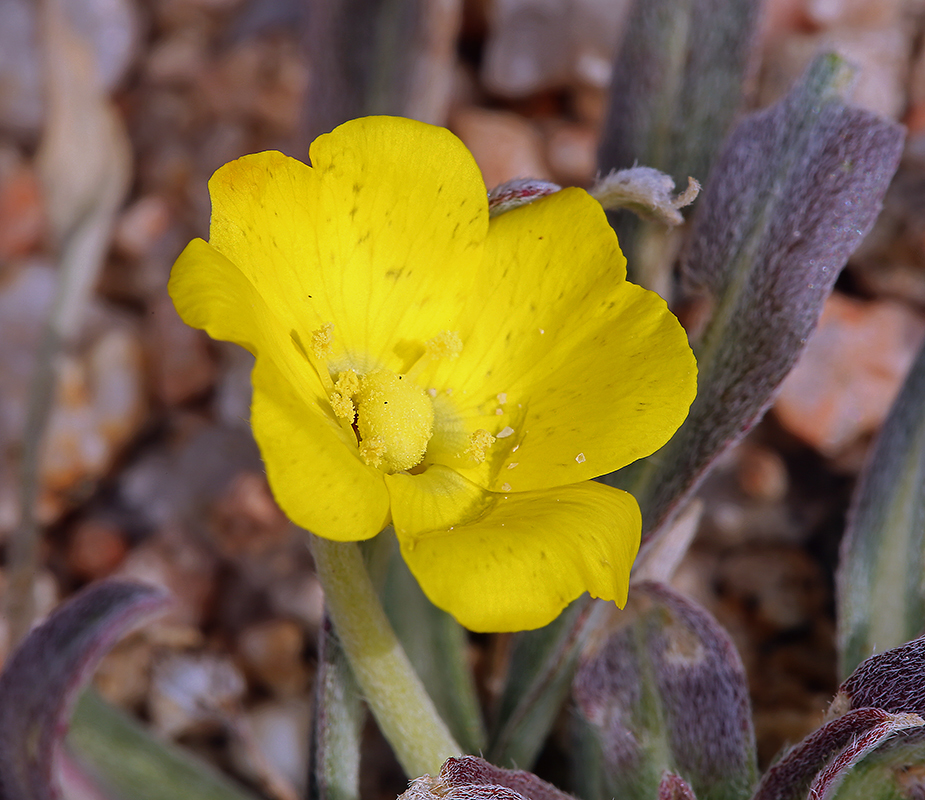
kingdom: Plantae
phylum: Tracheophyta
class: Magnoliopsida
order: Myrtales
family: Onagraceae
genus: Camissoniopsis
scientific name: Camissoniopsis pallida
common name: Paleyellow suncup
